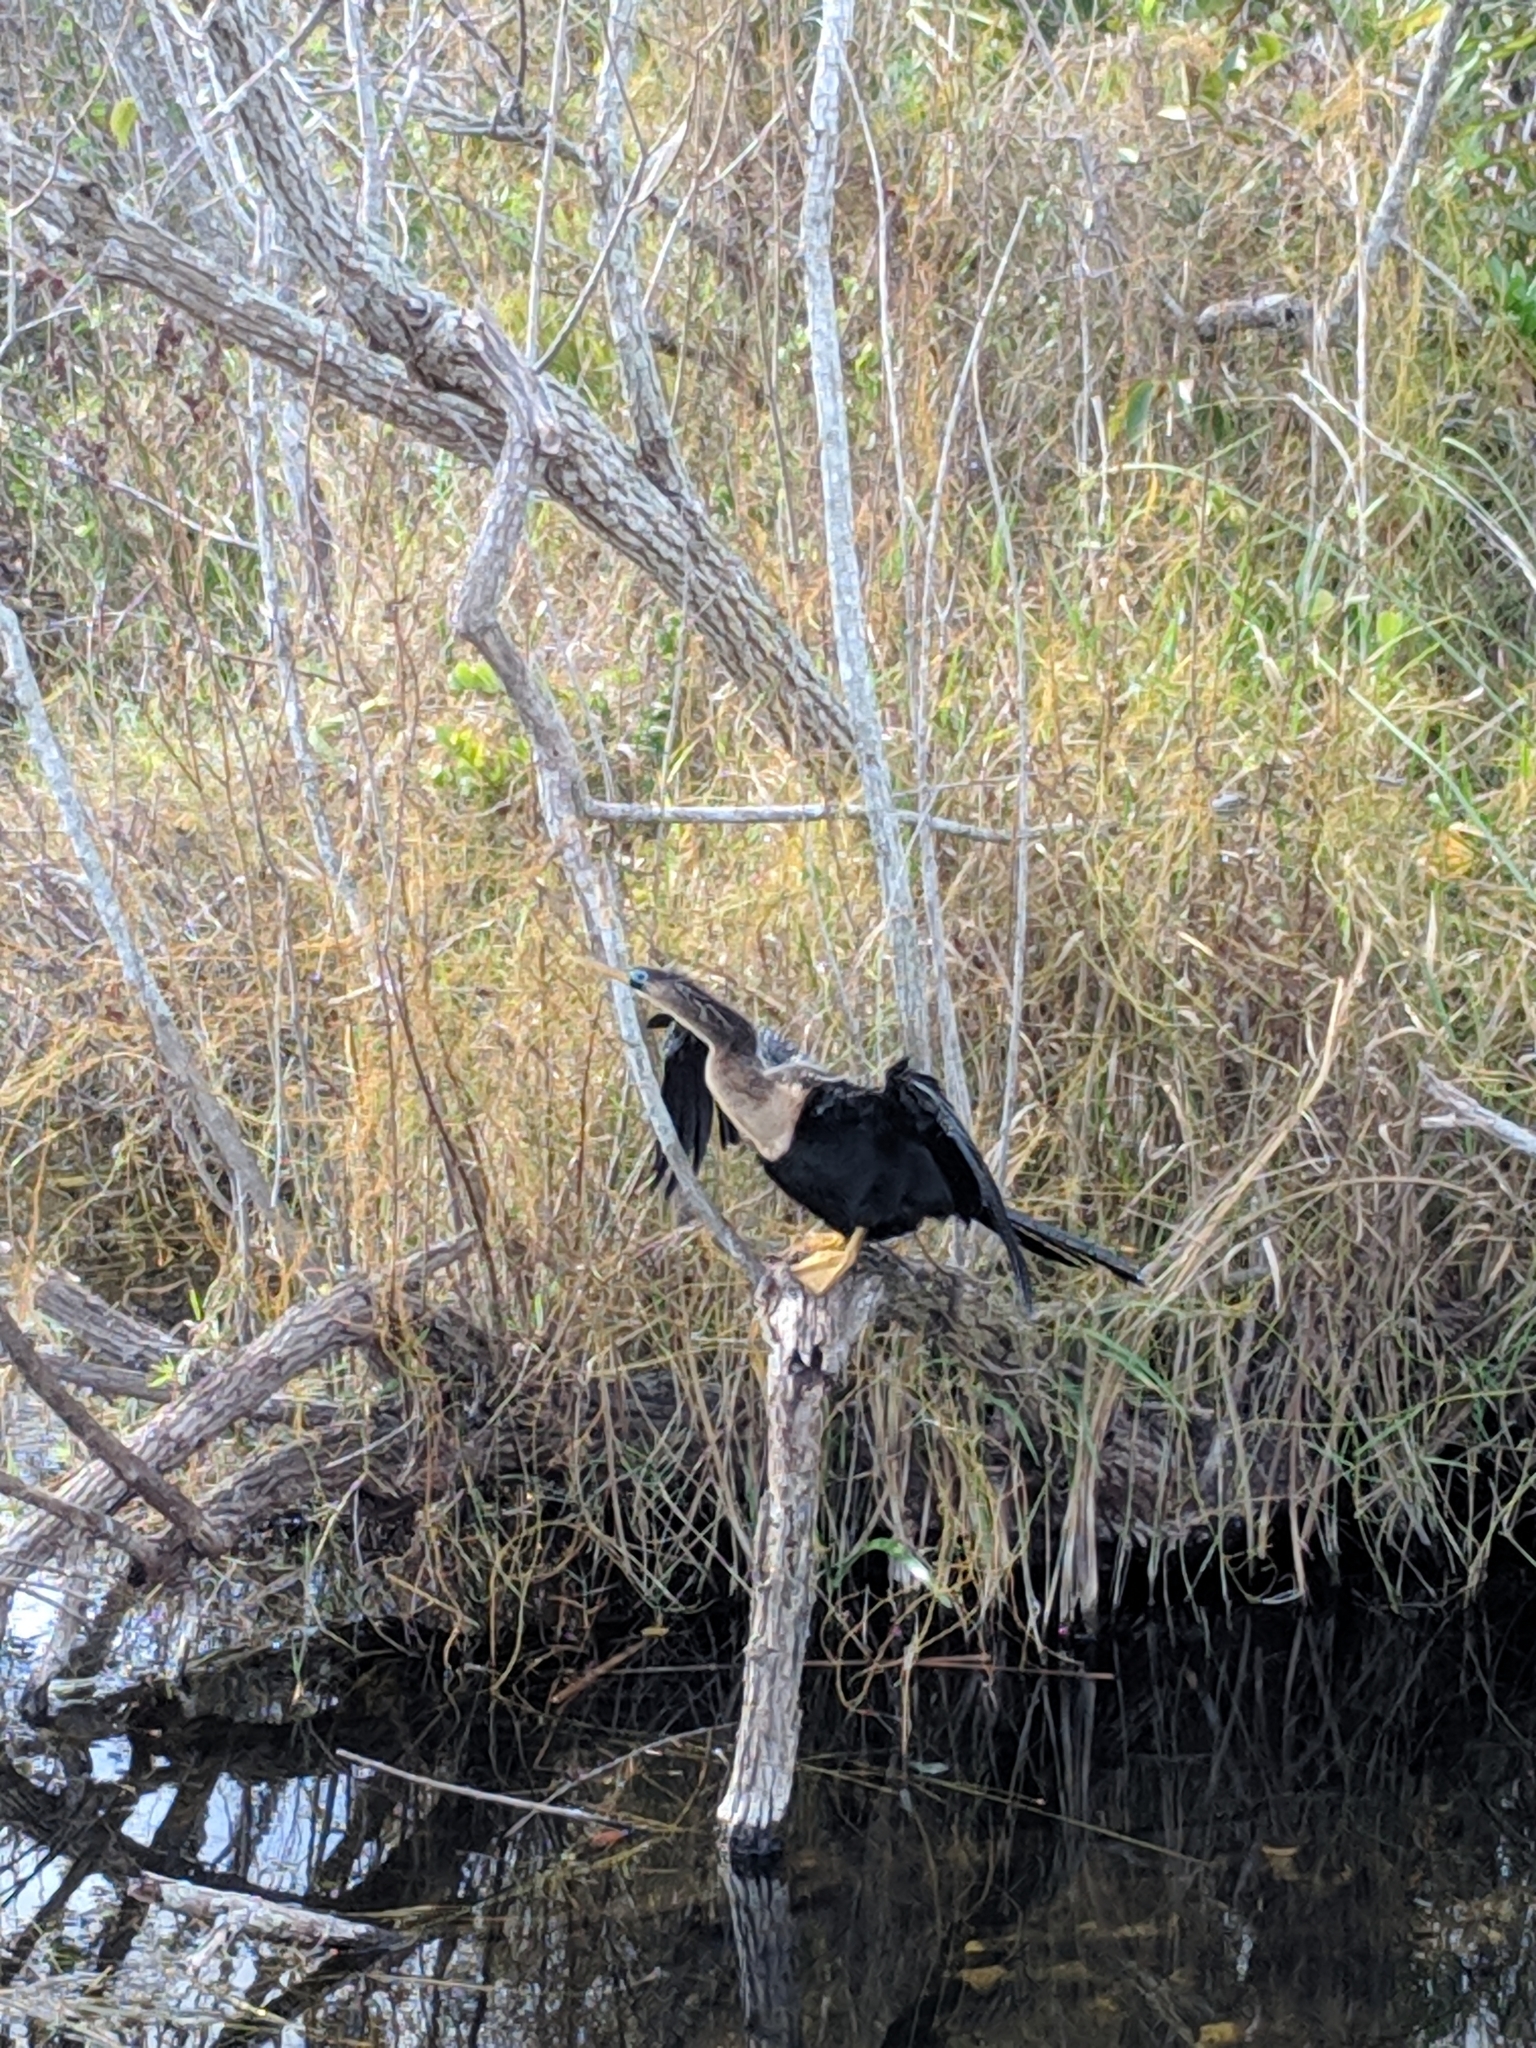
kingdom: Animalia
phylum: Chordata
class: Aves
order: Suliformes
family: Anhingidae
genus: Anhinga
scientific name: Anhinga anhinga
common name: Anhinga
